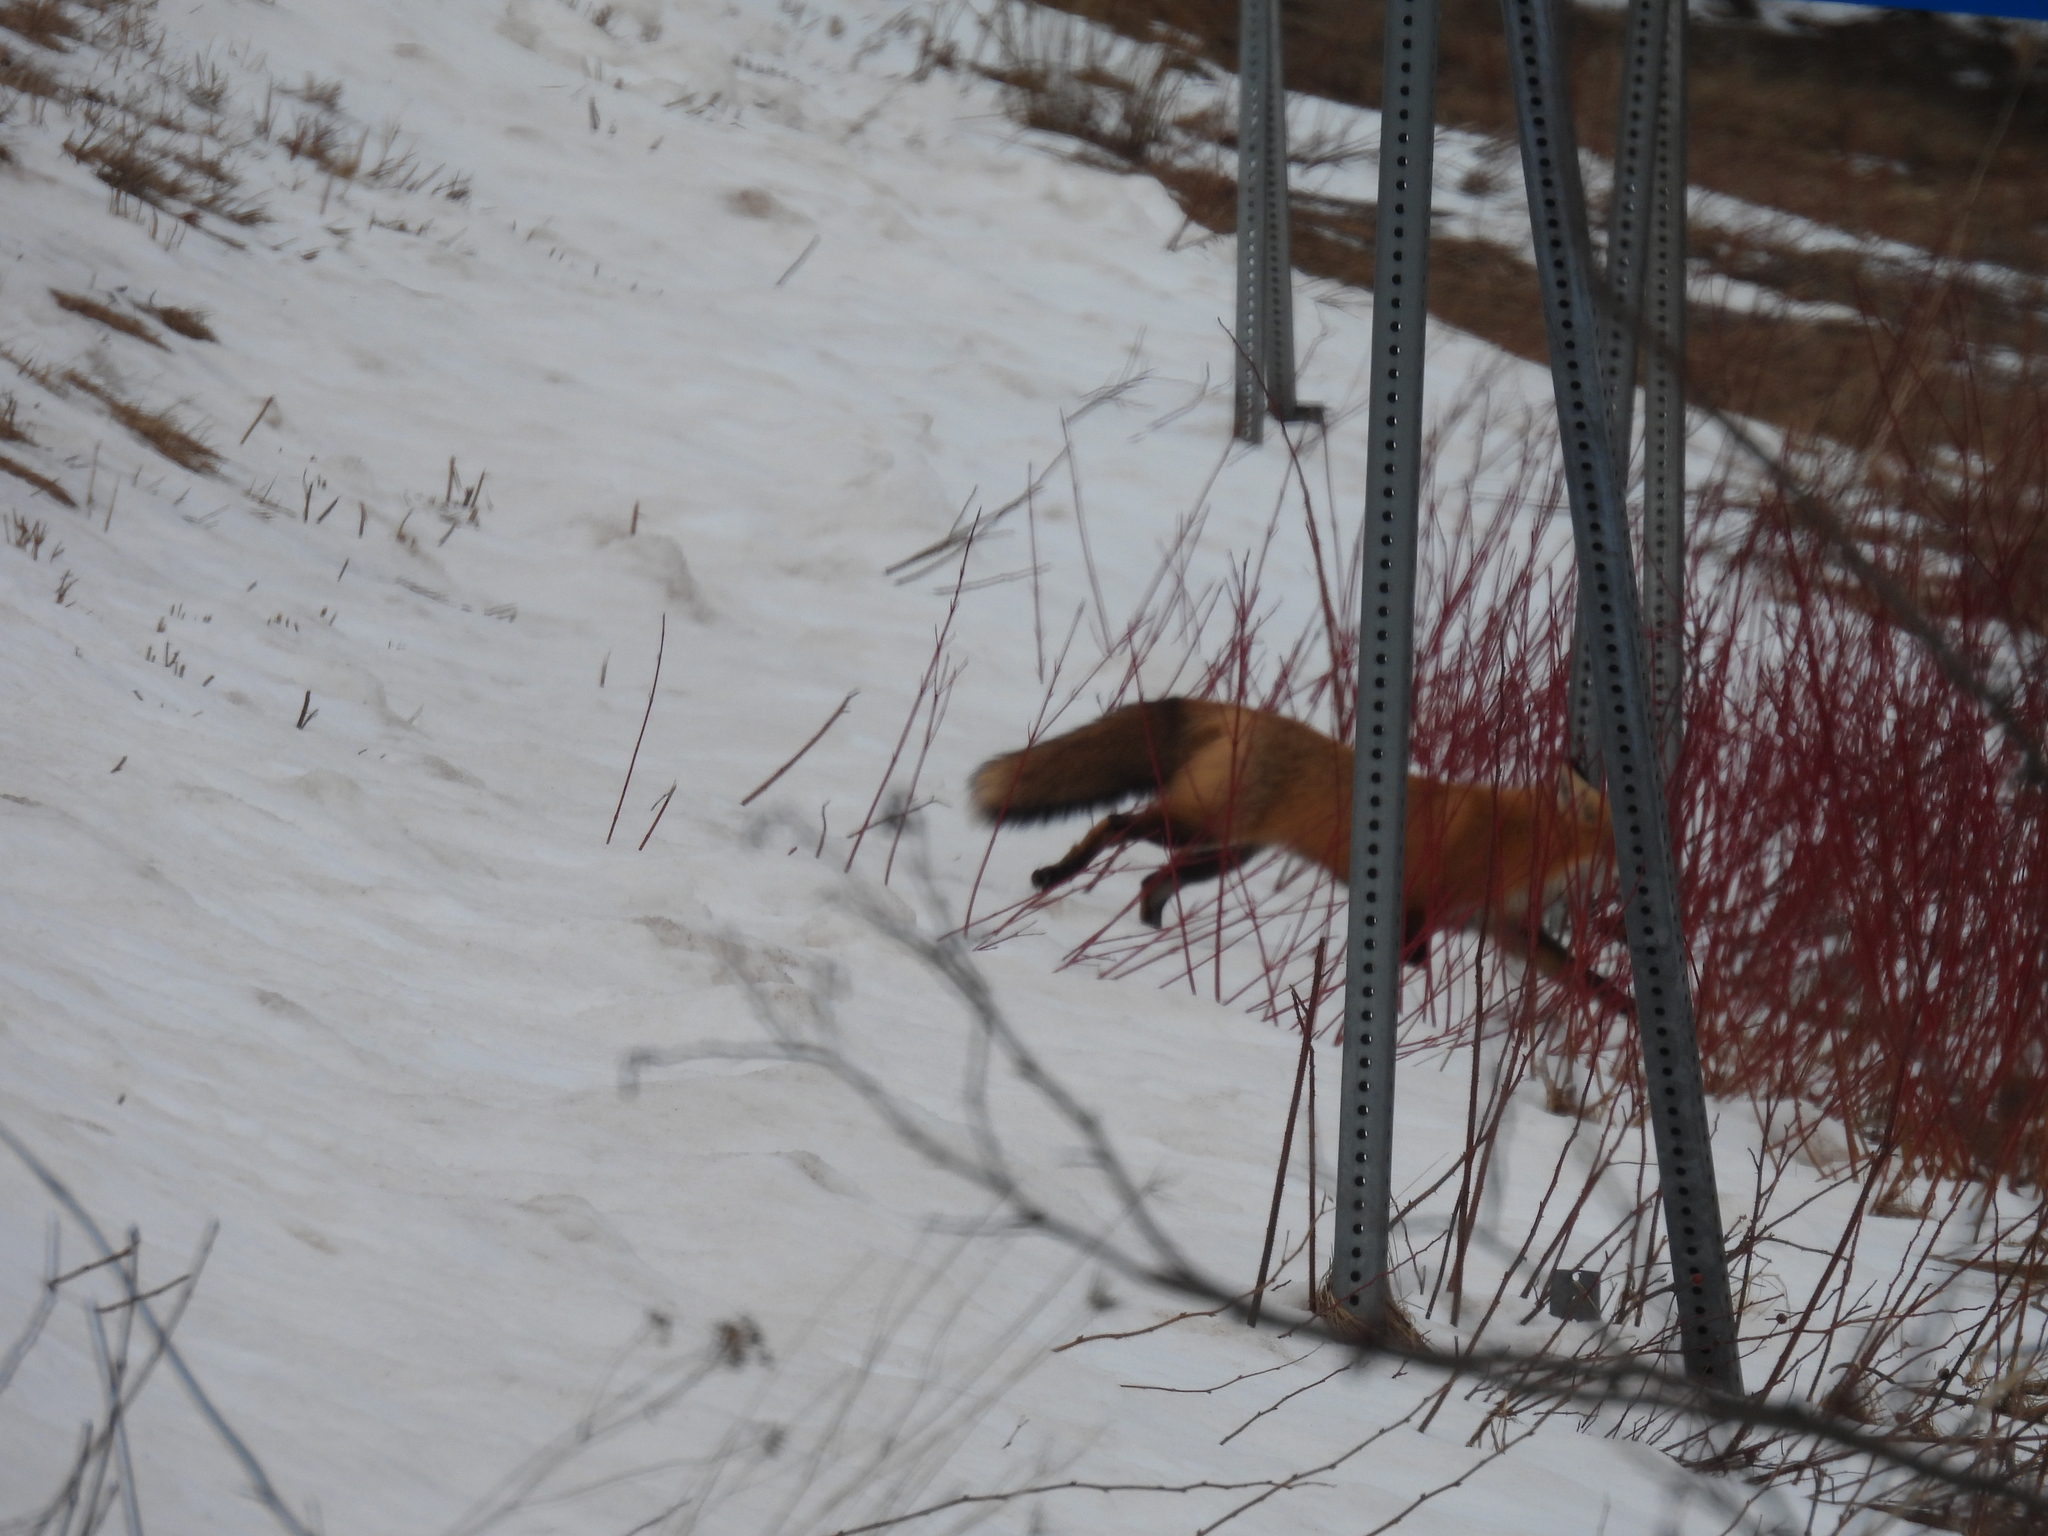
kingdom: Animalia
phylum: Chordata
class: Mammalia
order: Carnivora
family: Canidae
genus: Vulpes
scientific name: Vulpes vulpes
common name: Red fox
